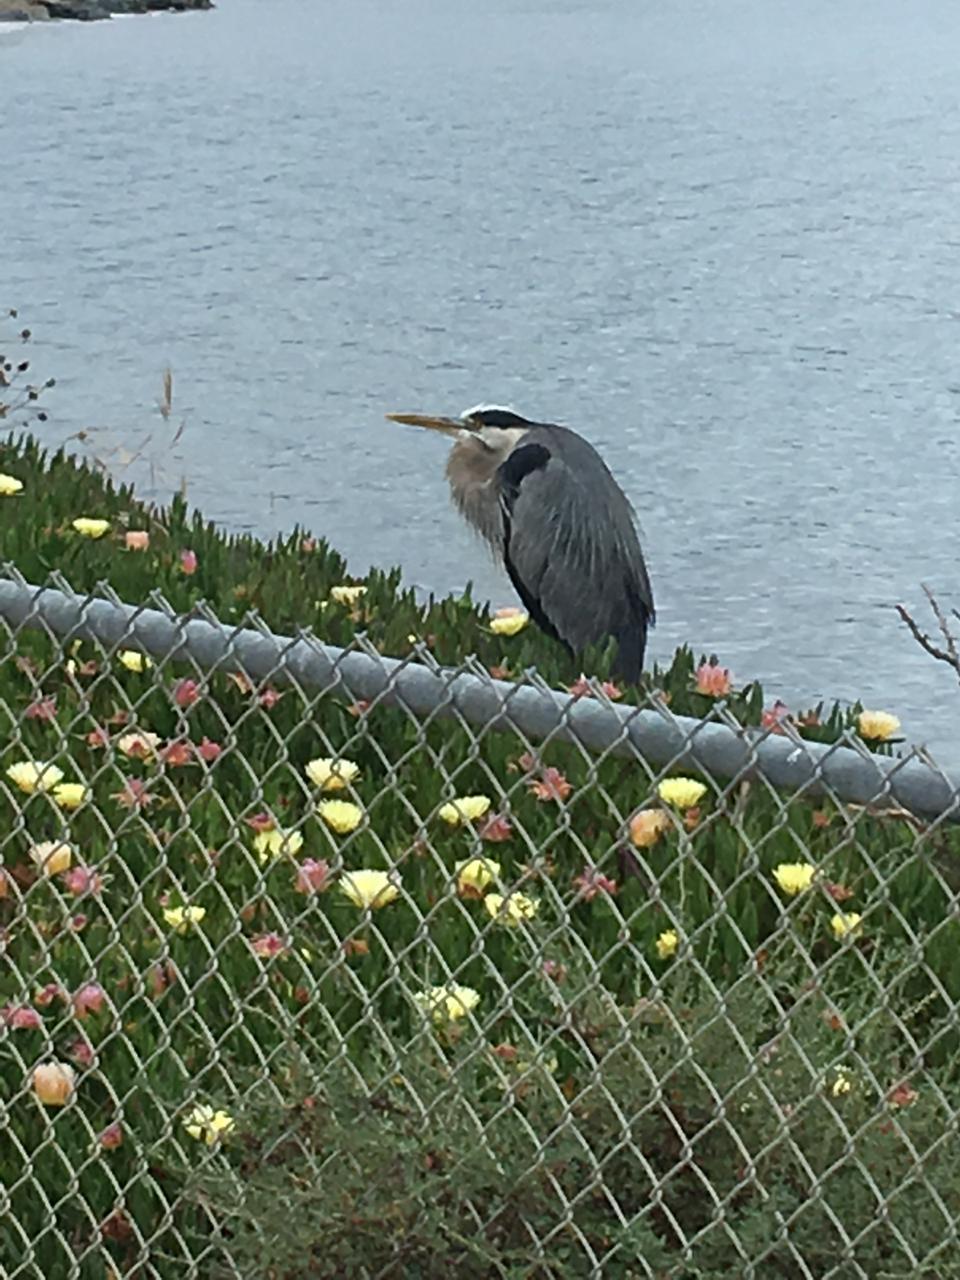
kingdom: Animalia
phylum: Chordata
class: Aves
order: Pelecaniformes
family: Ardeidae
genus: Ardea
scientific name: Ardea herodias
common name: Great blue heron
